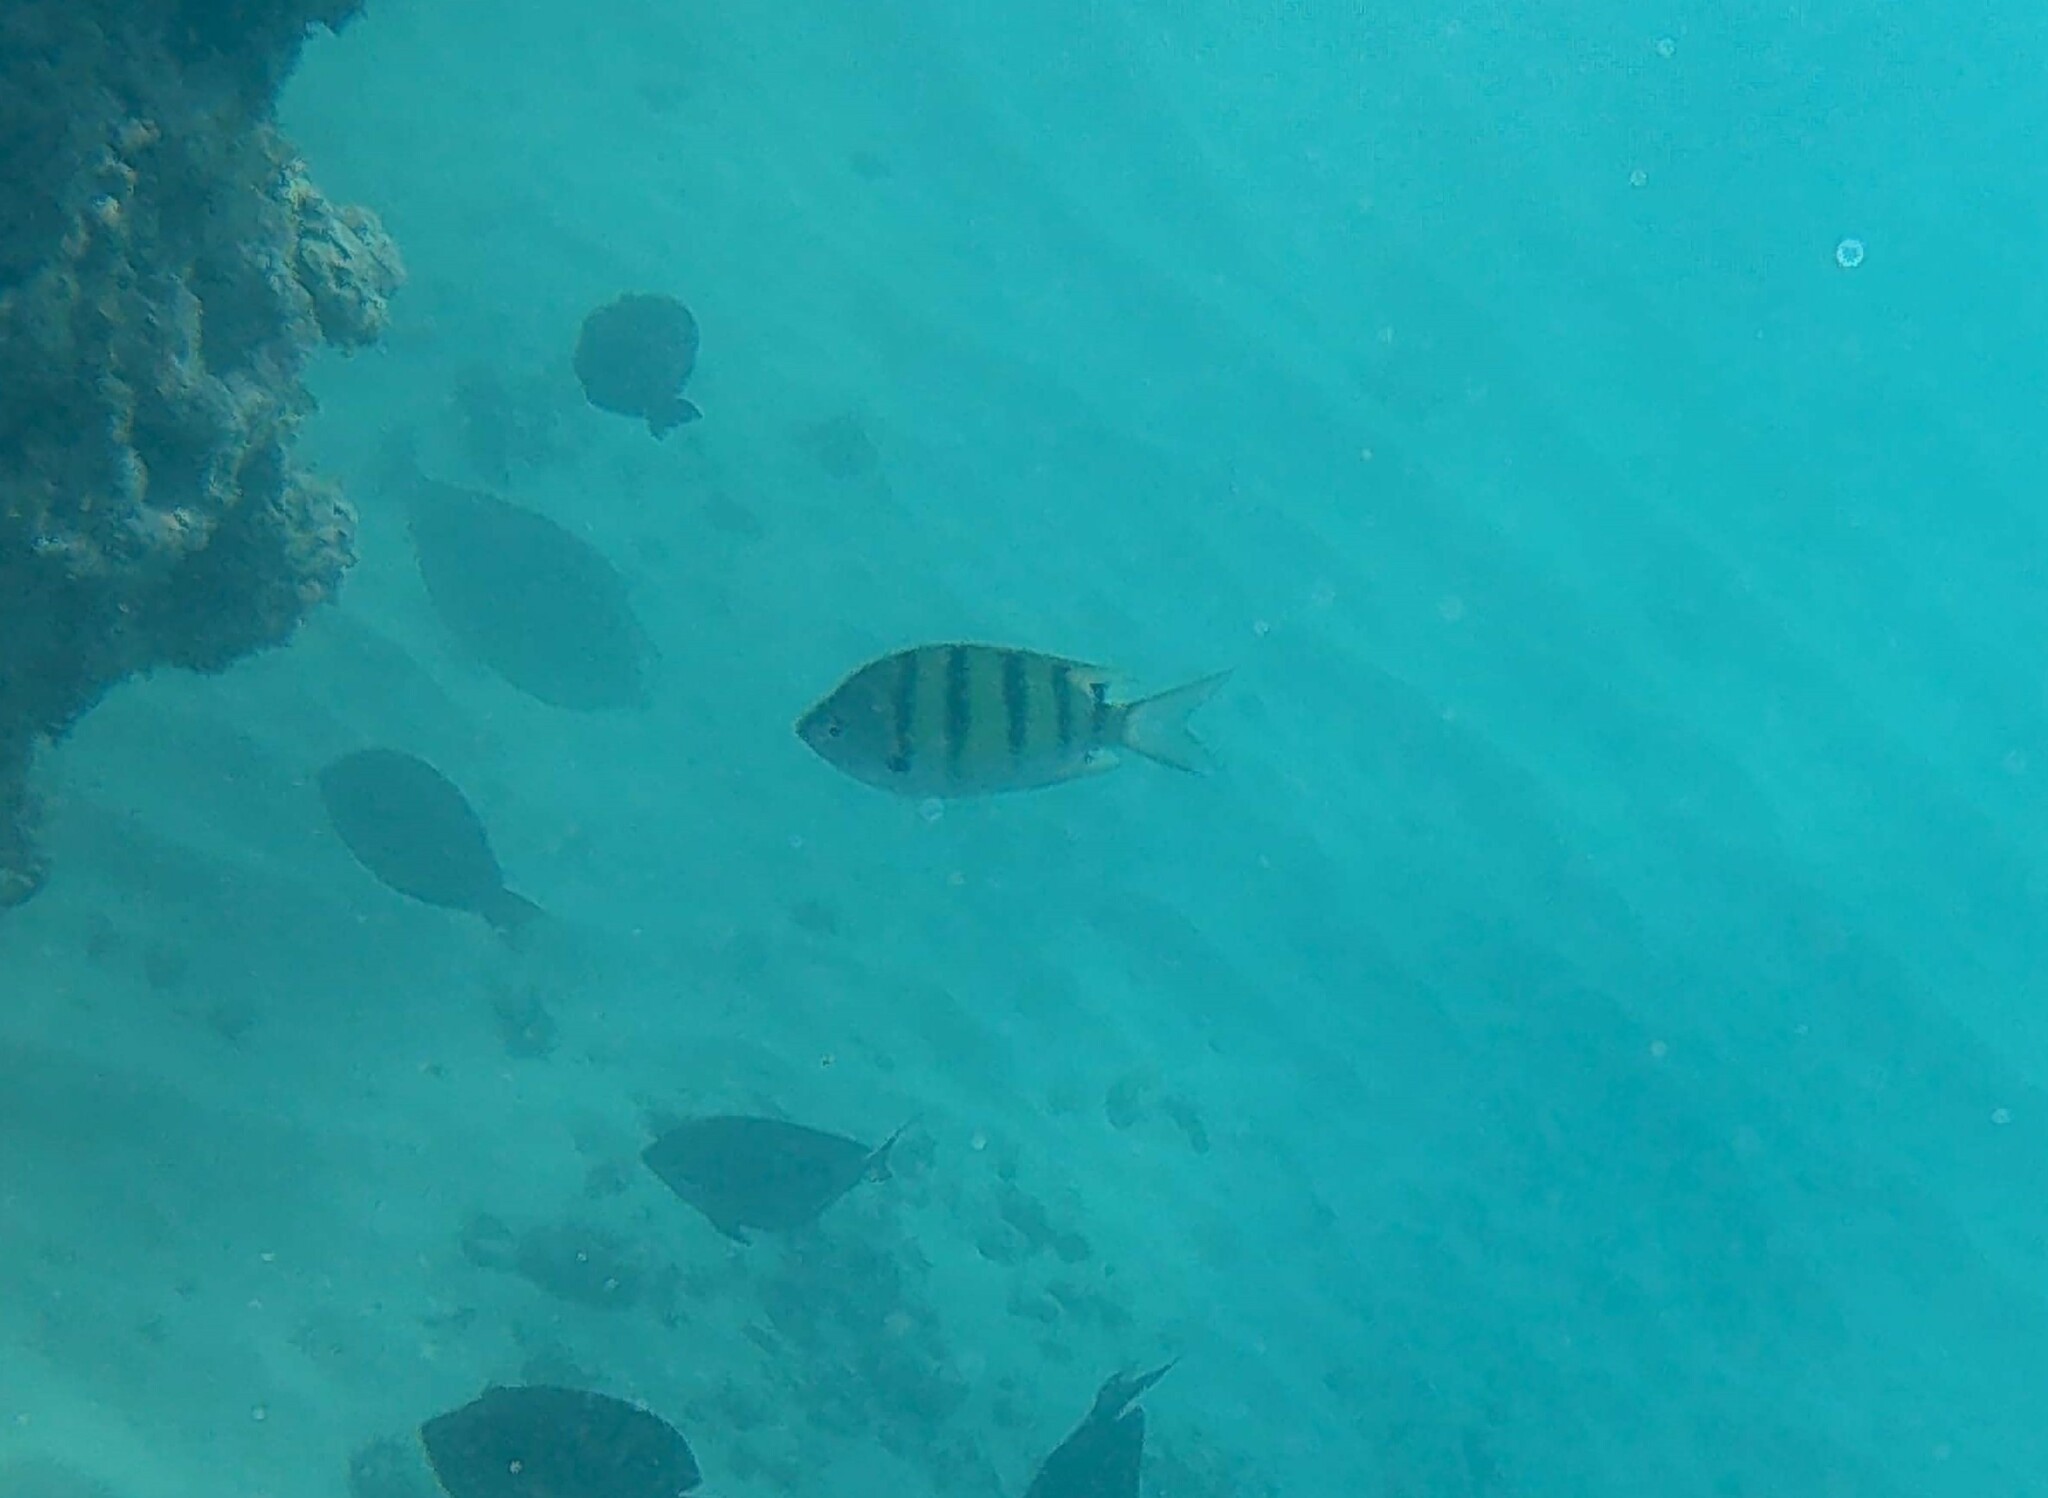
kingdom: Animalia
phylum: Chordata
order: Perciformes
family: Pomacentridae
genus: Abudefduf
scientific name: Abudefduf abdominalis
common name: Green damselfish
